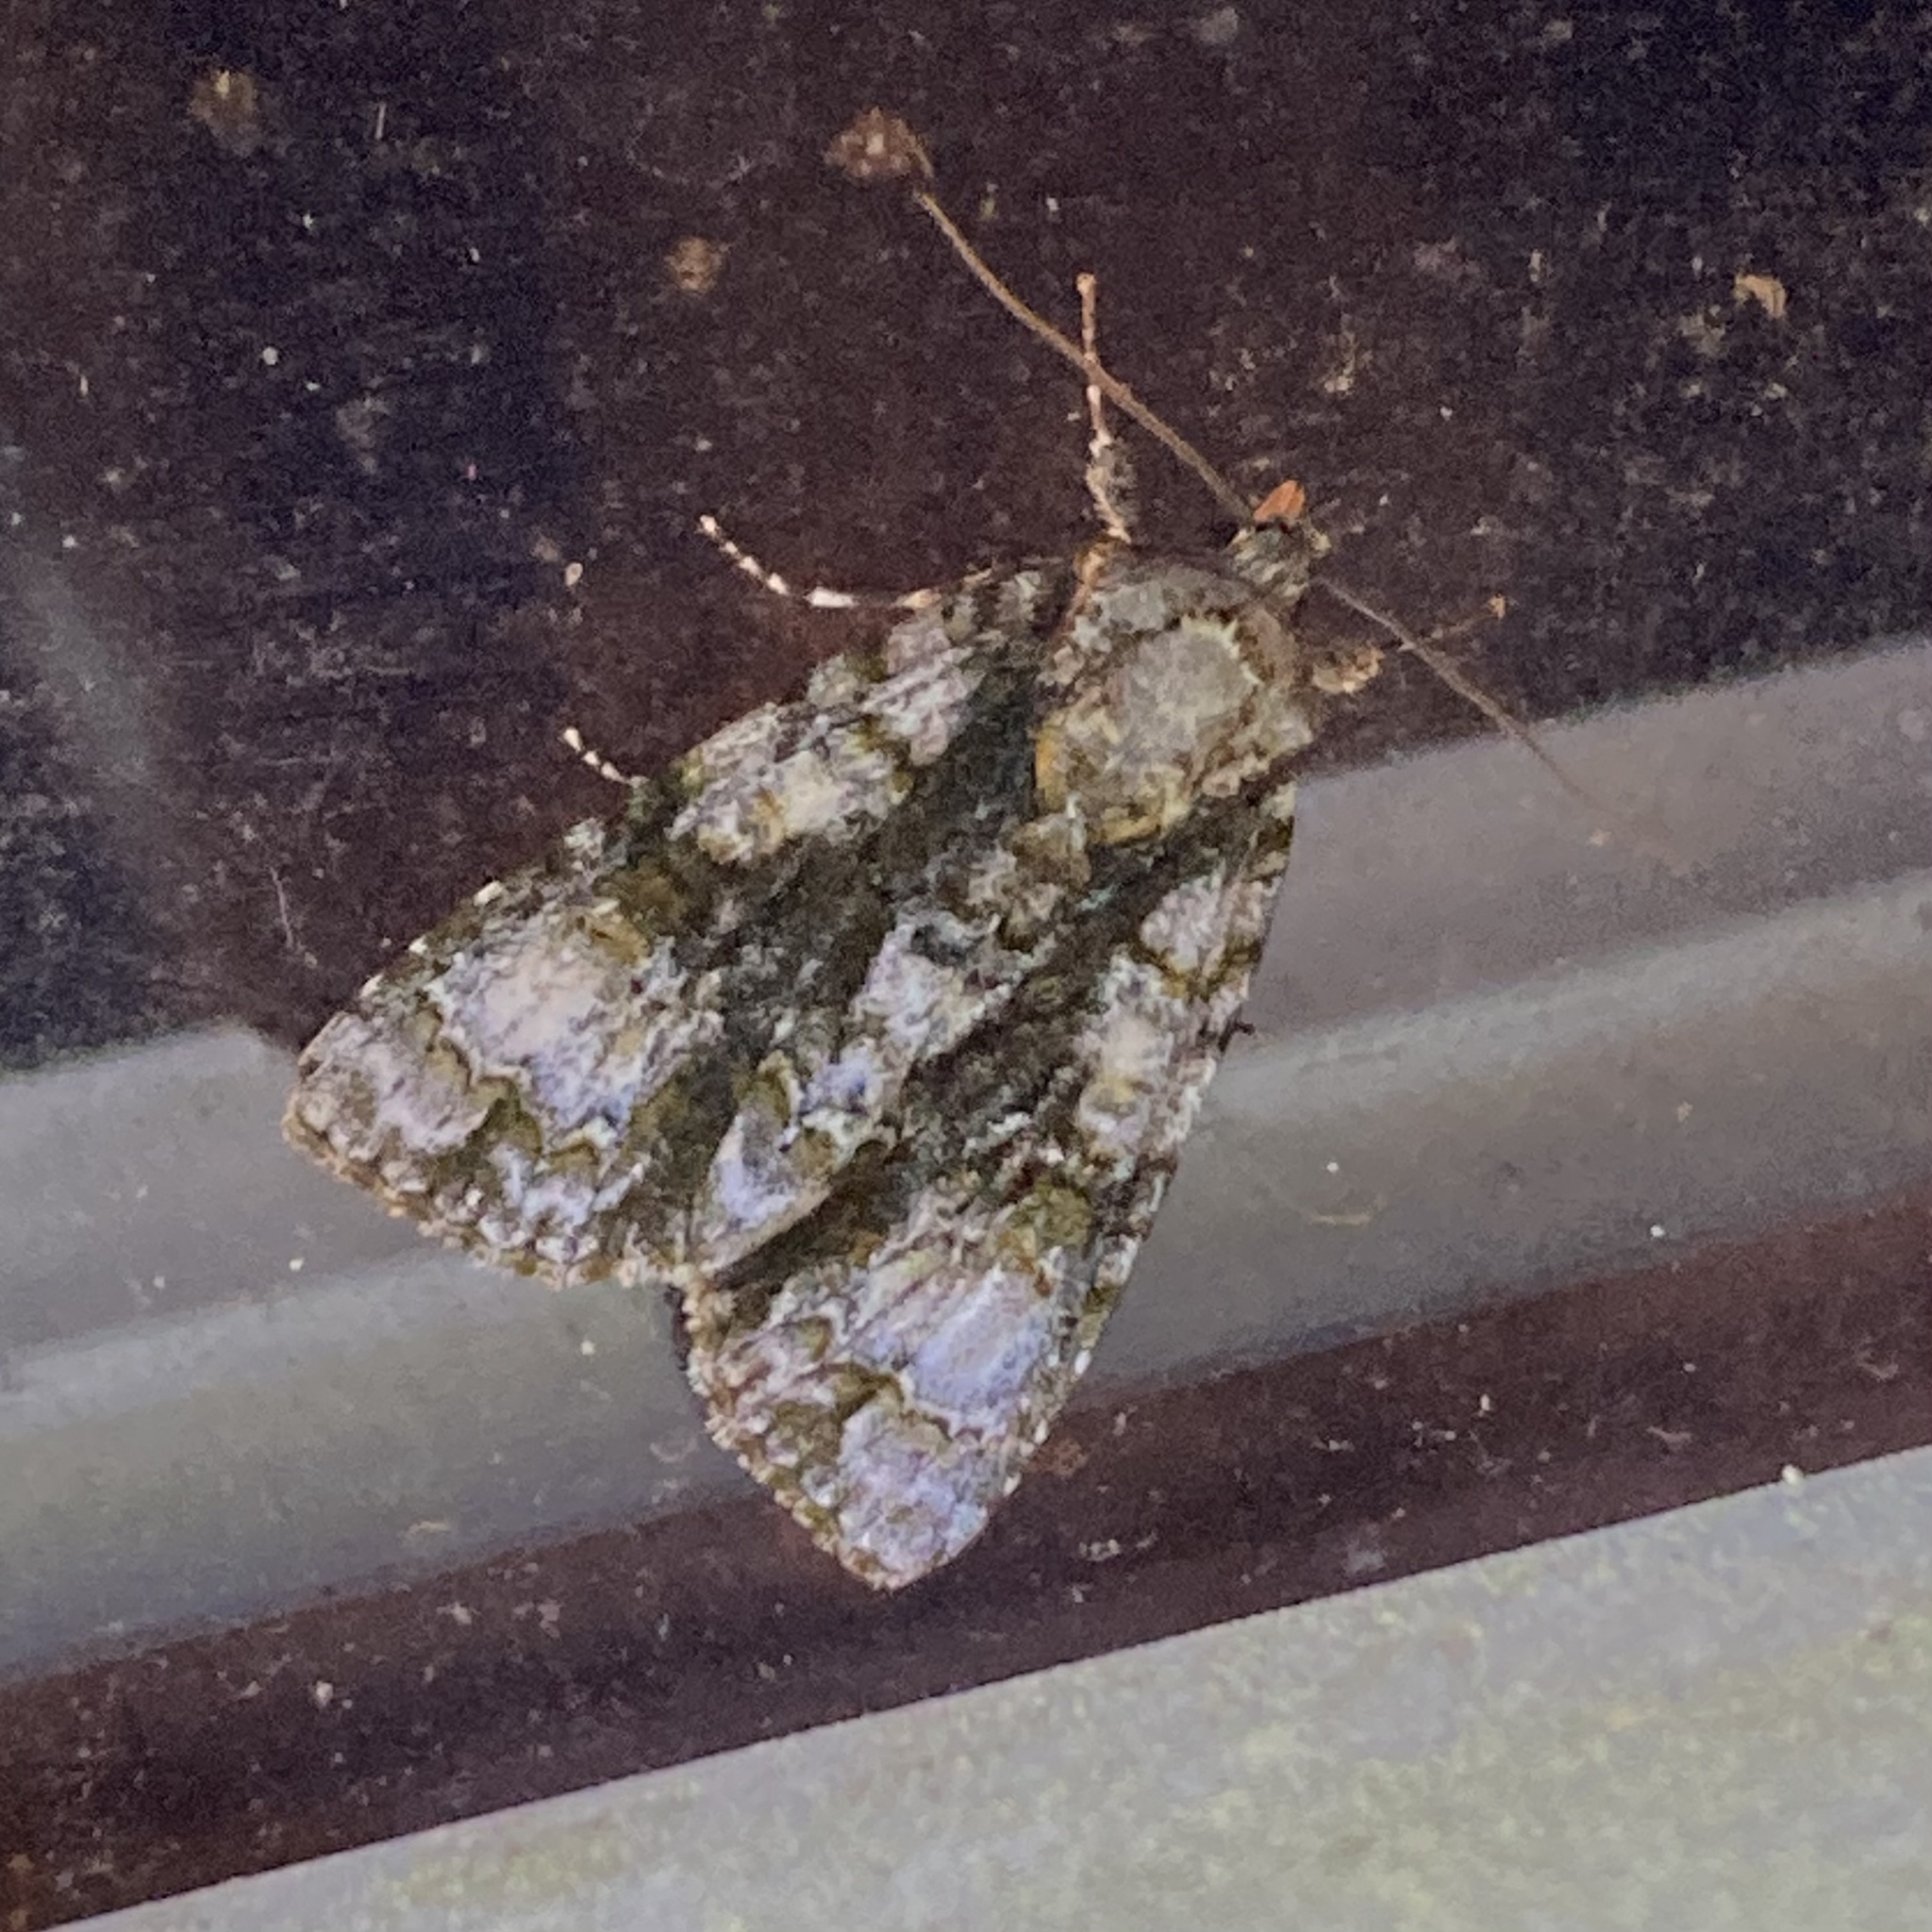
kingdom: Animalia
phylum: Arthropoda
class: Insecta
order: Lepidoptera
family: Noctuidae
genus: Acronicta
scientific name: Acronicta superans
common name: Splendid dagger
